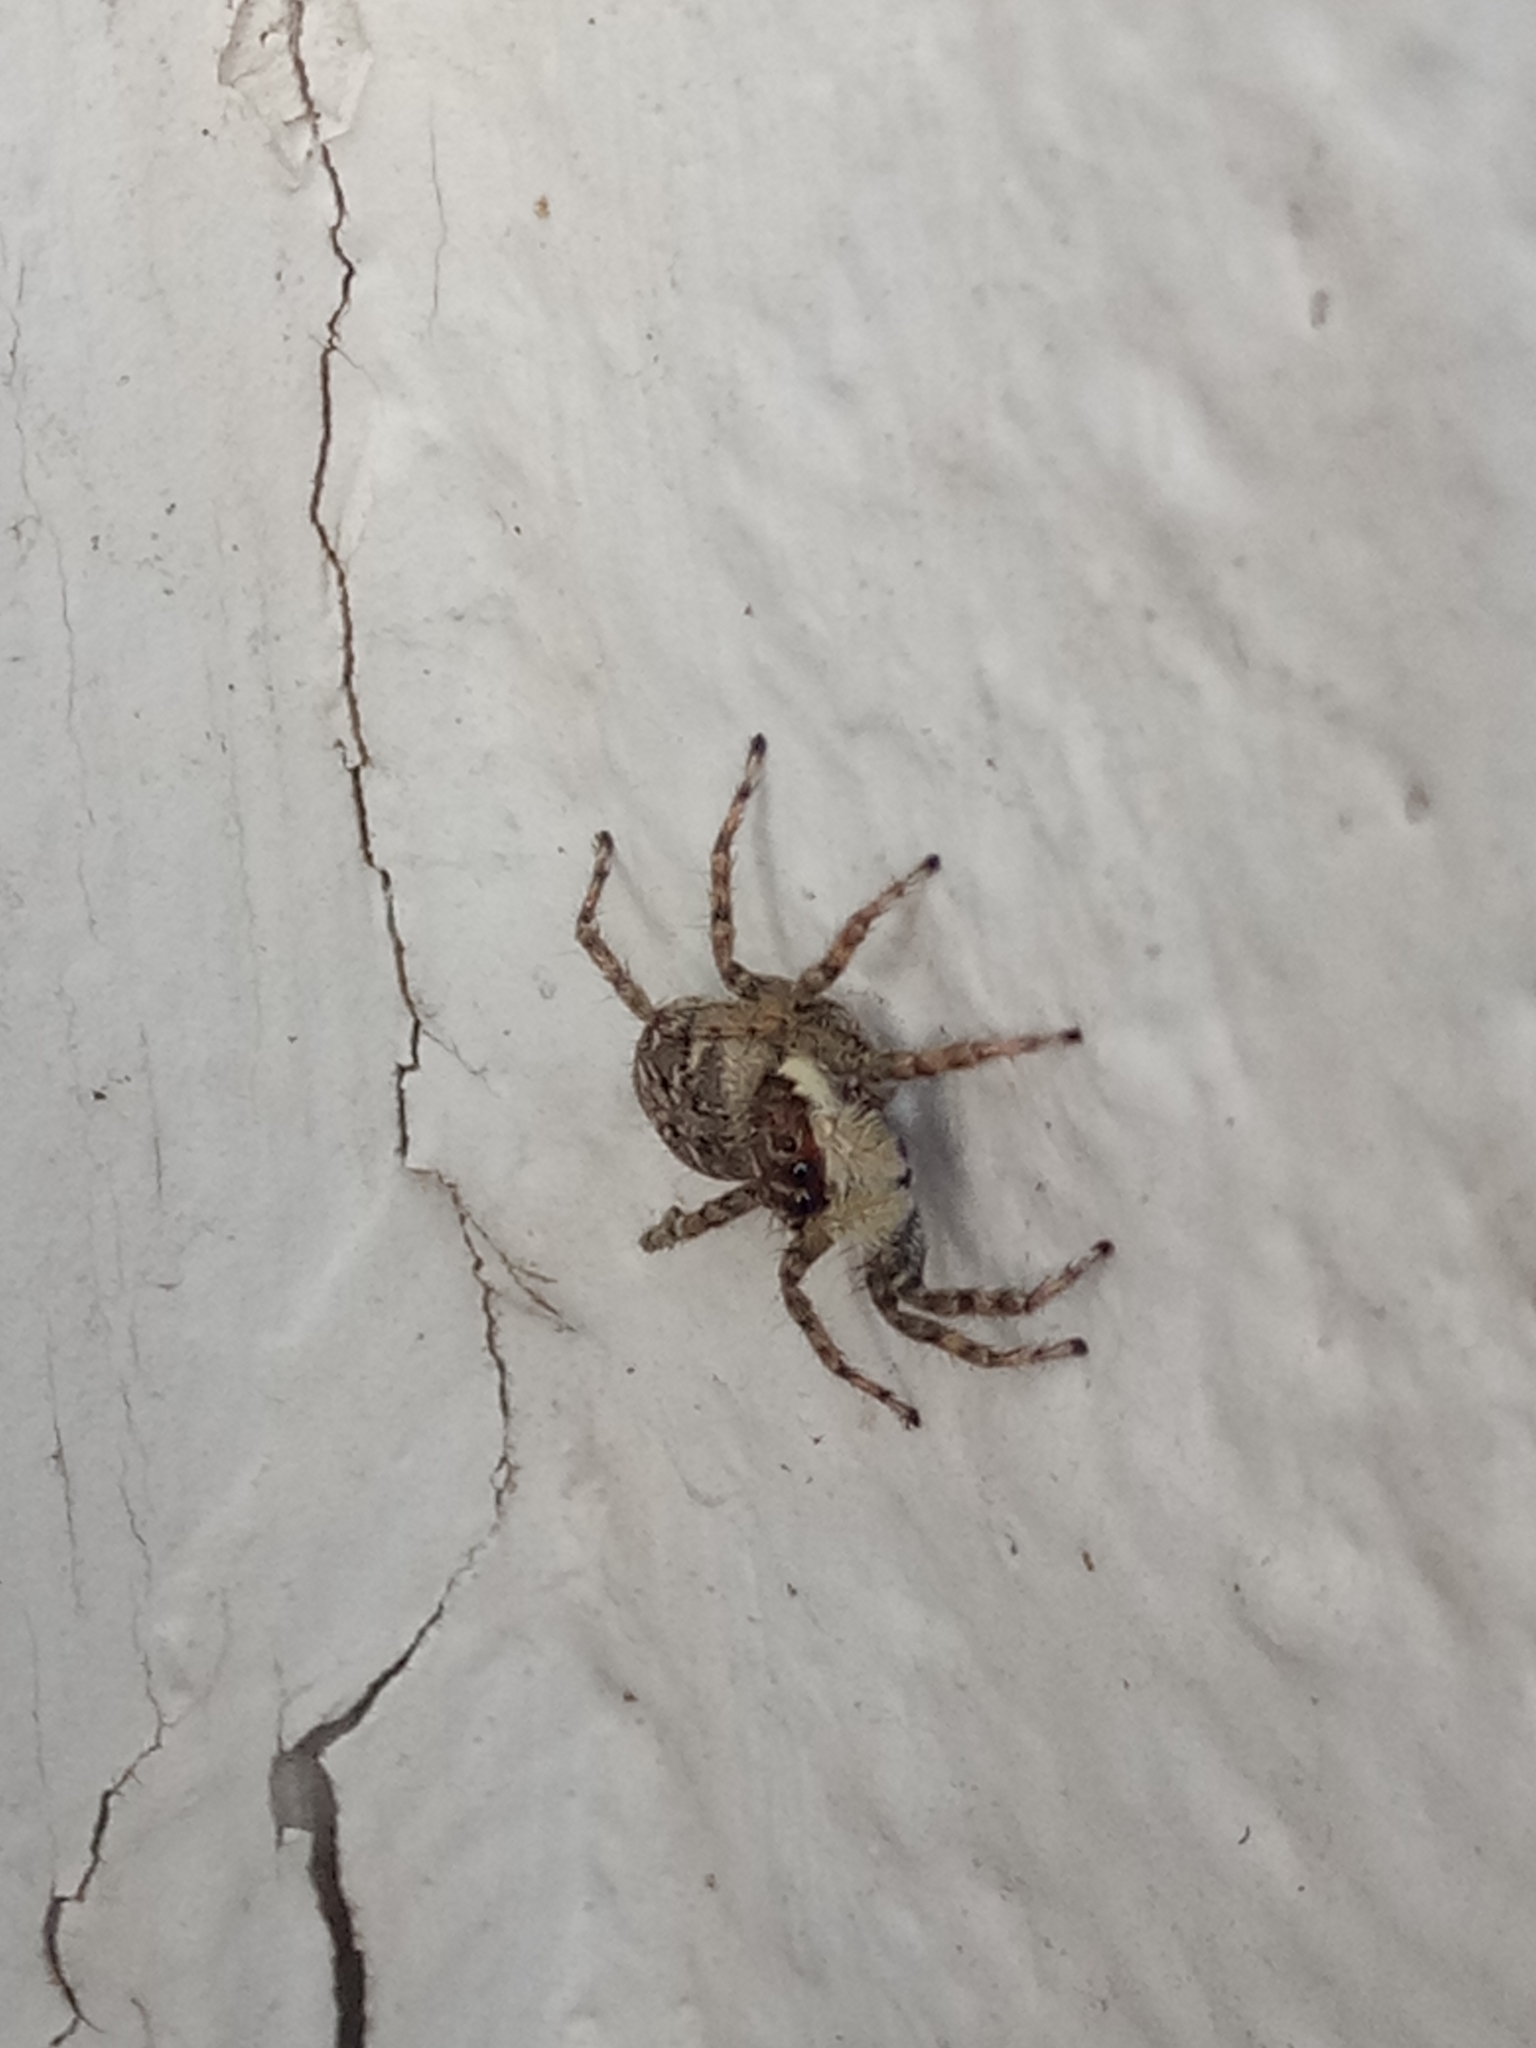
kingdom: Animalia
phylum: Arthropoda
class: Arachnida
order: Araneae
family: Salticidae
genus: Menemerus
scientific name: Menemerus semilimbatus
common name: Jumping spider
